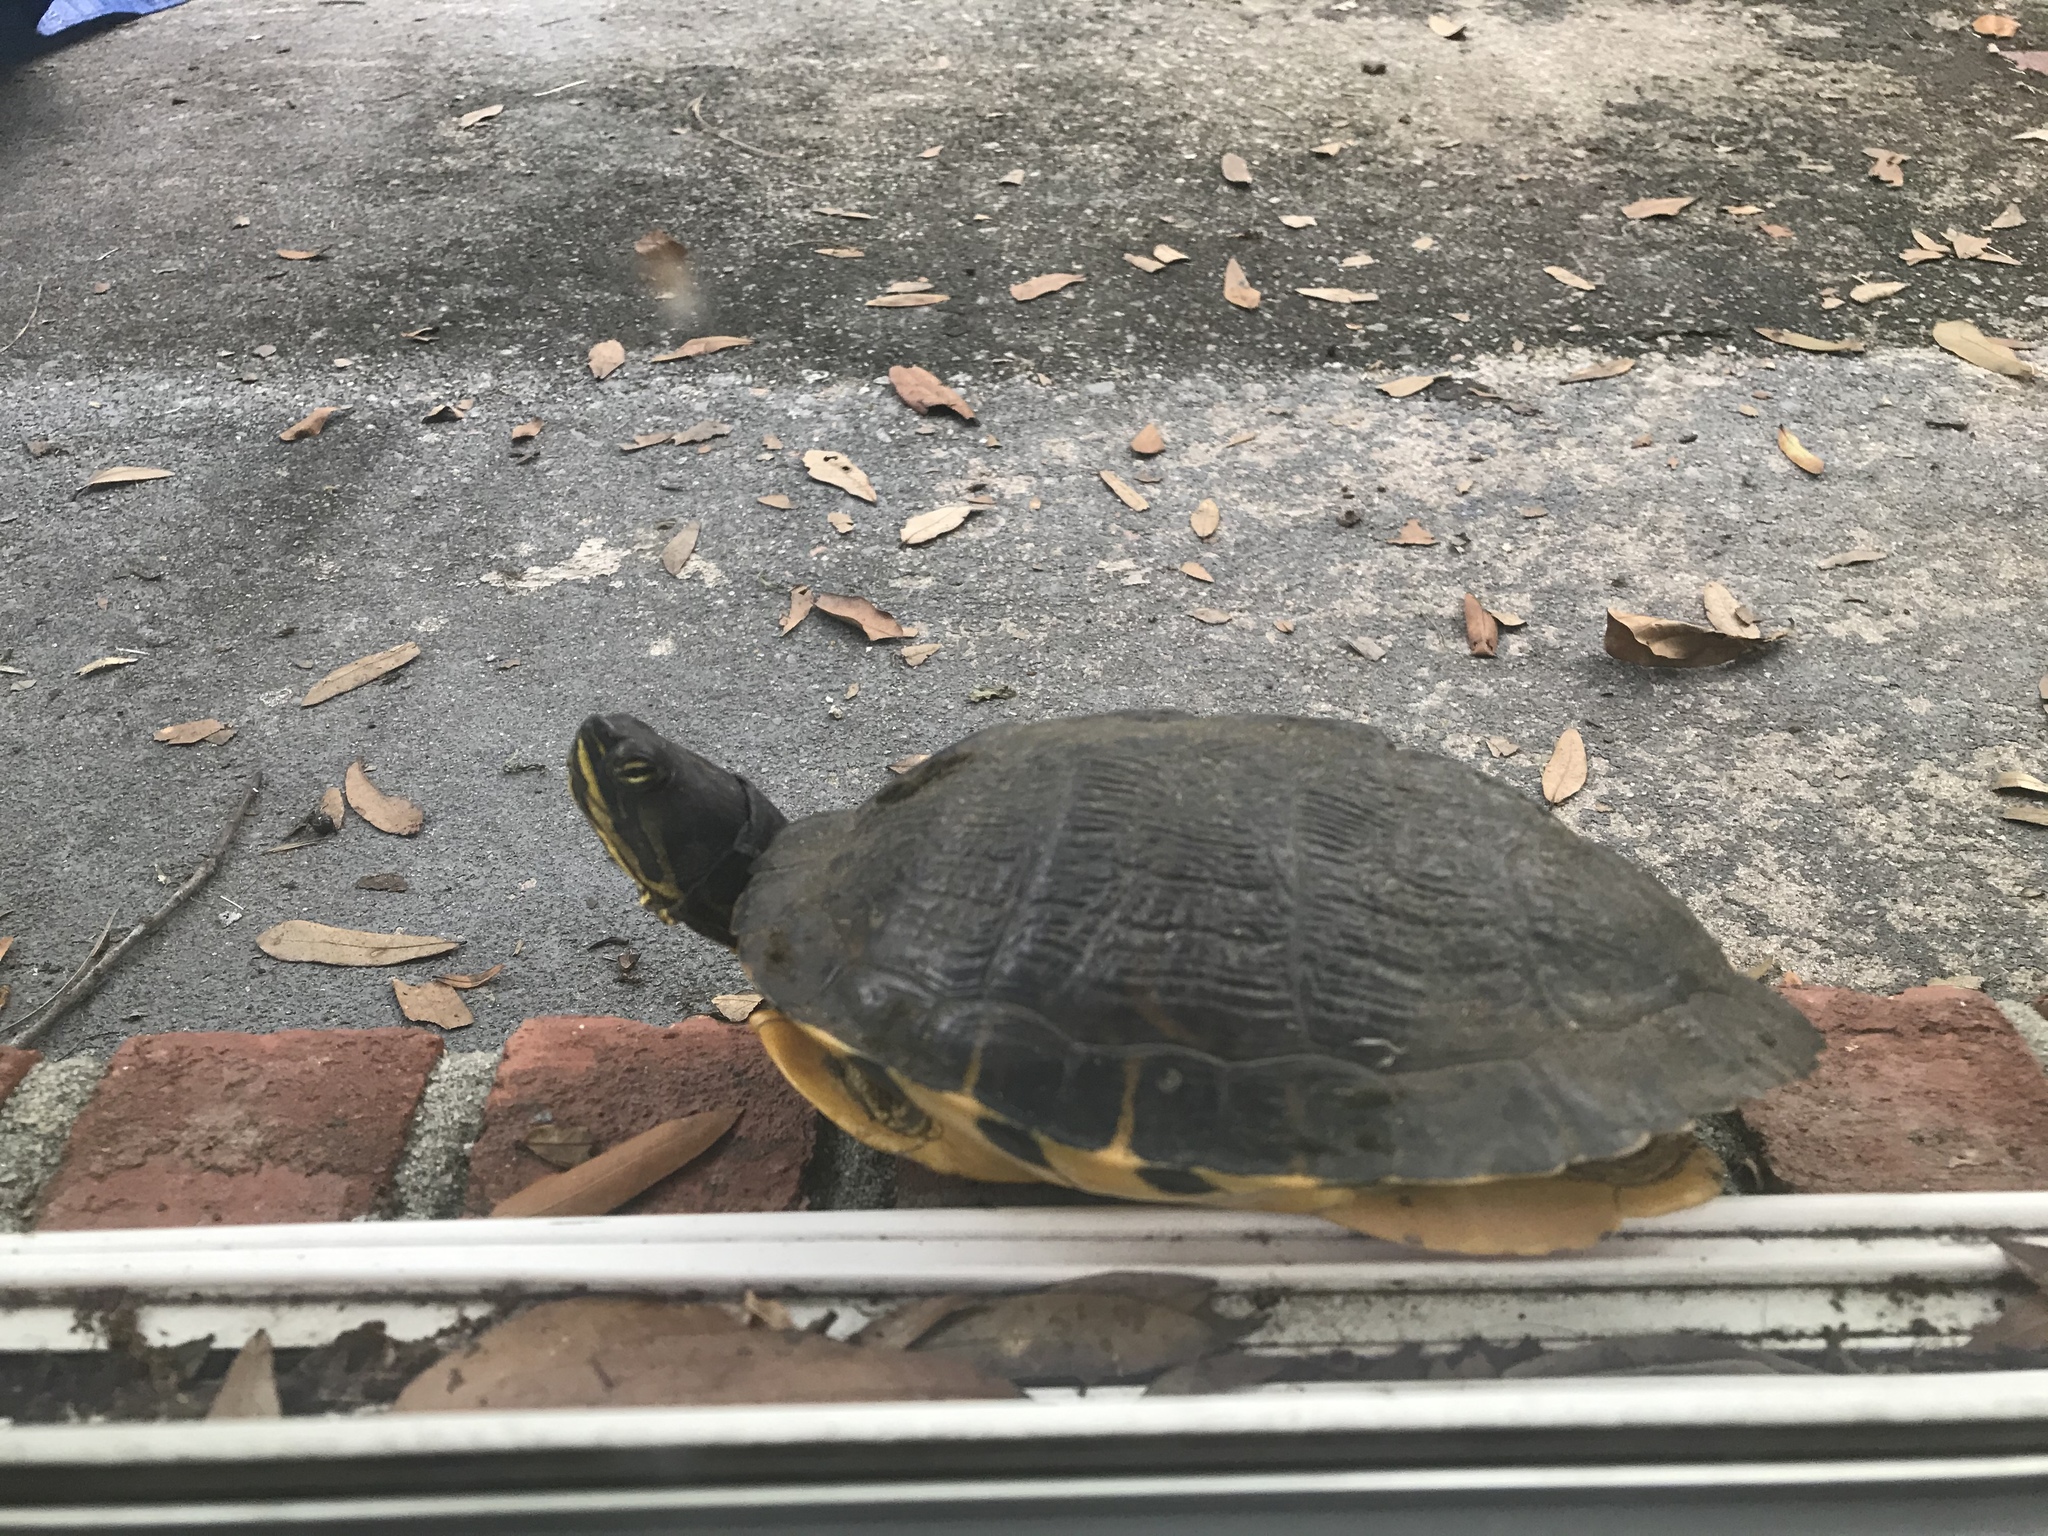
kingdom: Animalia
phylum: Chordata
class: Testudines
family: Emydidae
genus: Trachemys
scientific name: Trachemys scripta
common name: Slider
